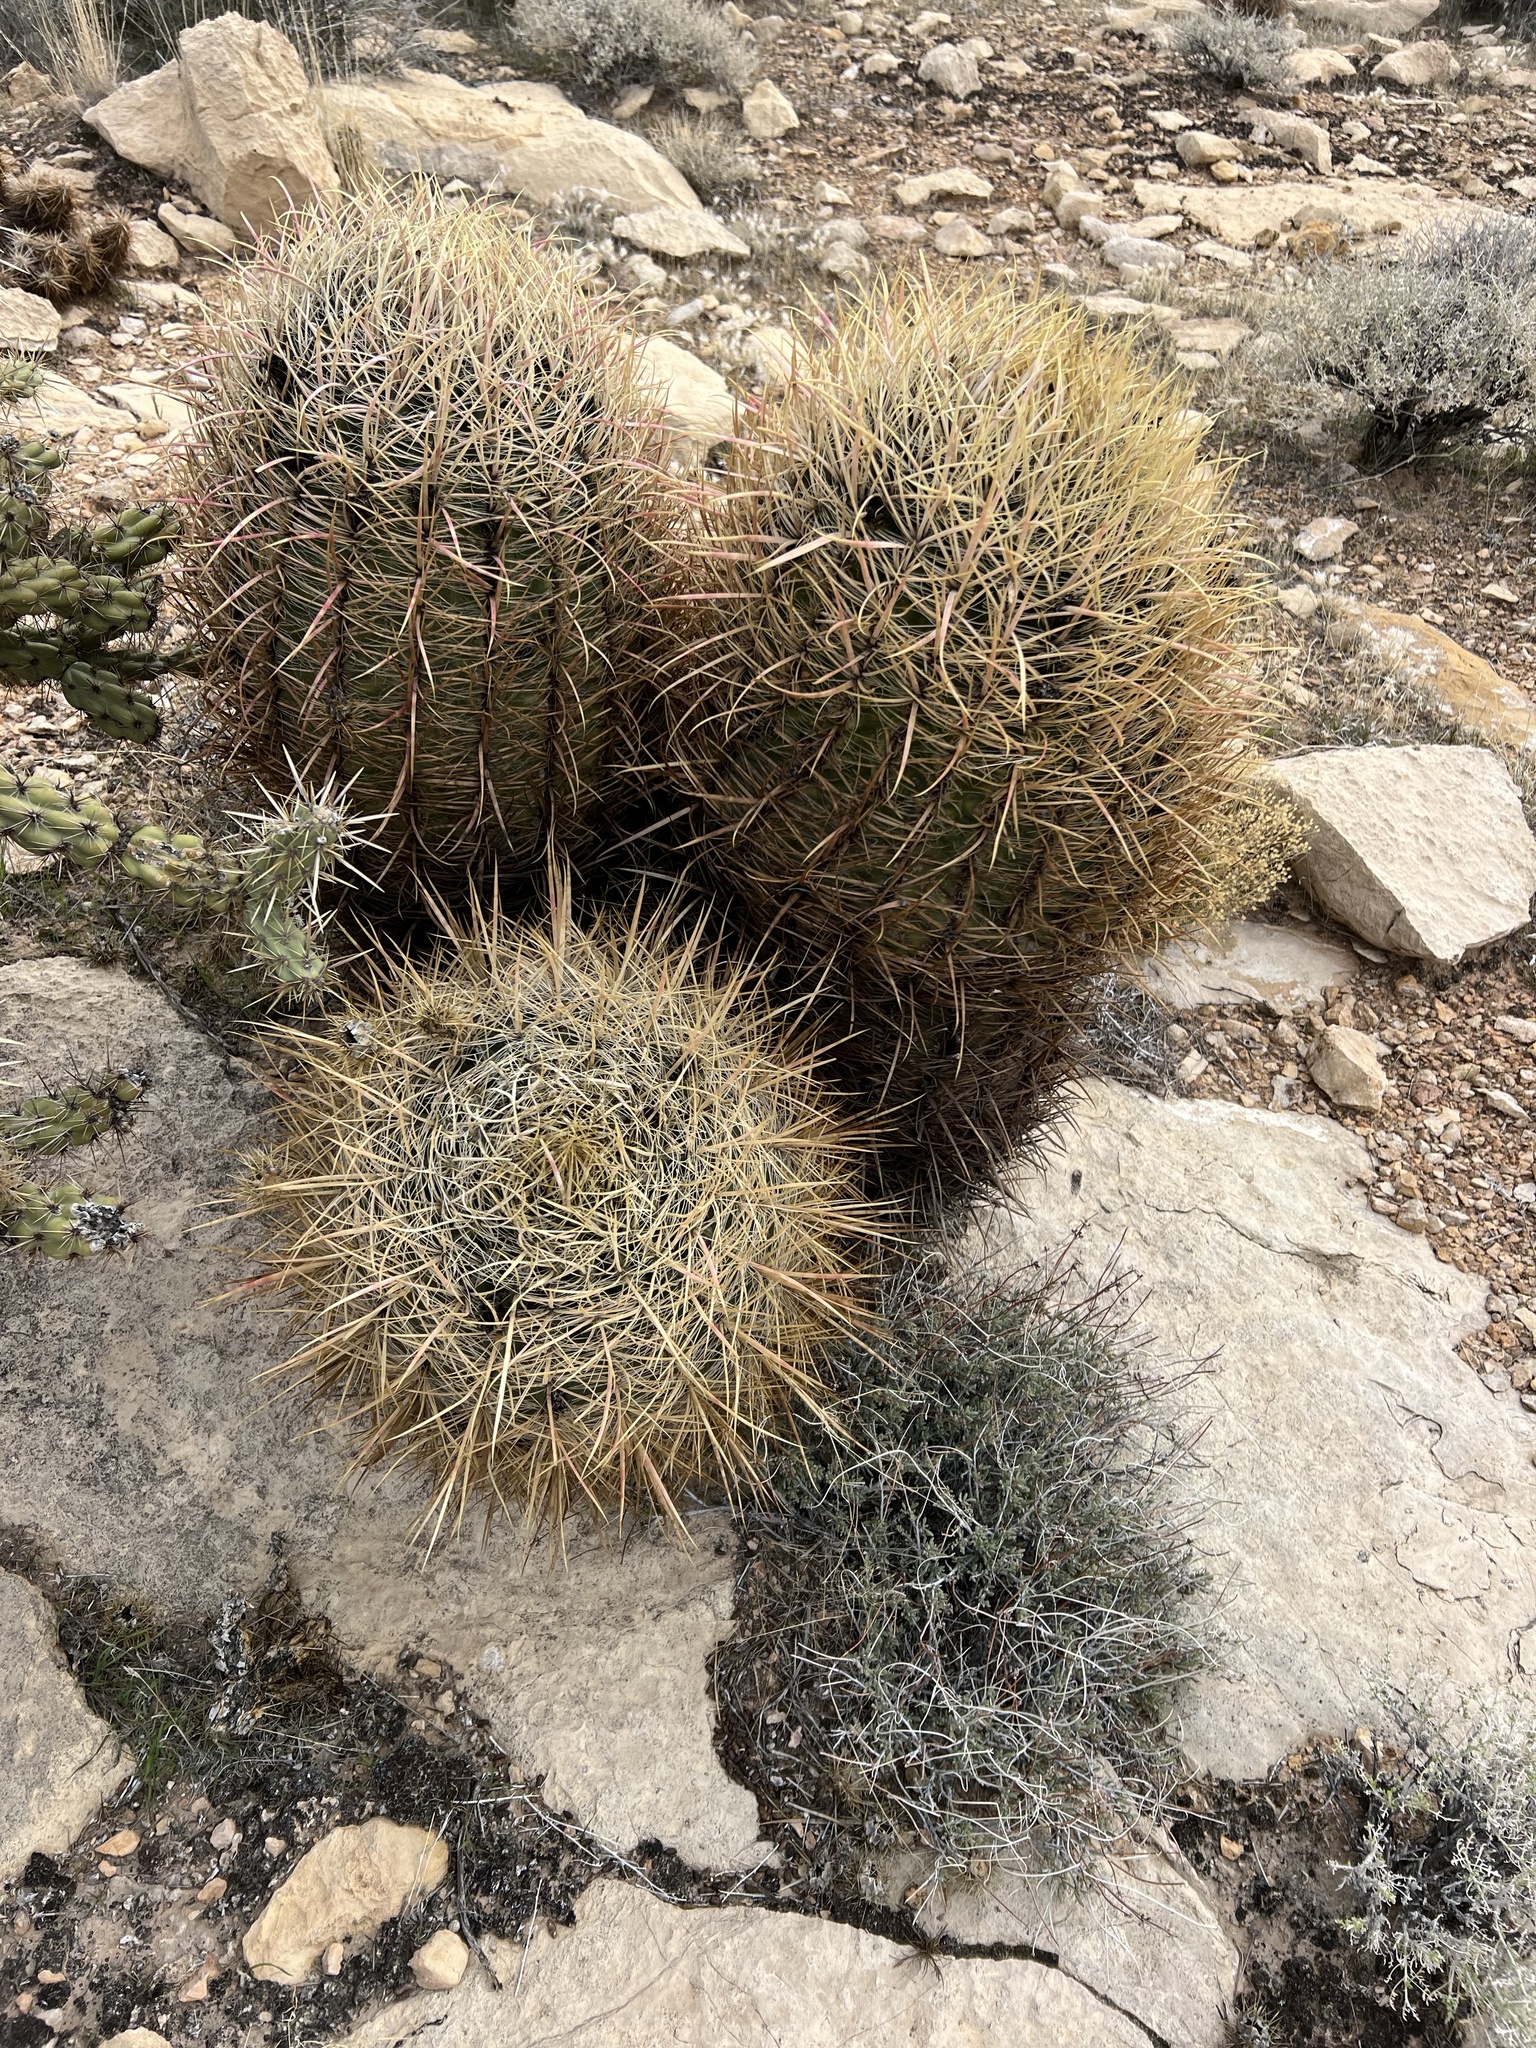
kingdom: Plantae
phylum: Tracheophyta
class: Magnoliopsida
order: Caryophyllales
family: Cactaceae
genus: Ferocactus
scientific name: Ferocactus cylindraceus
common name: California barrel cactus
